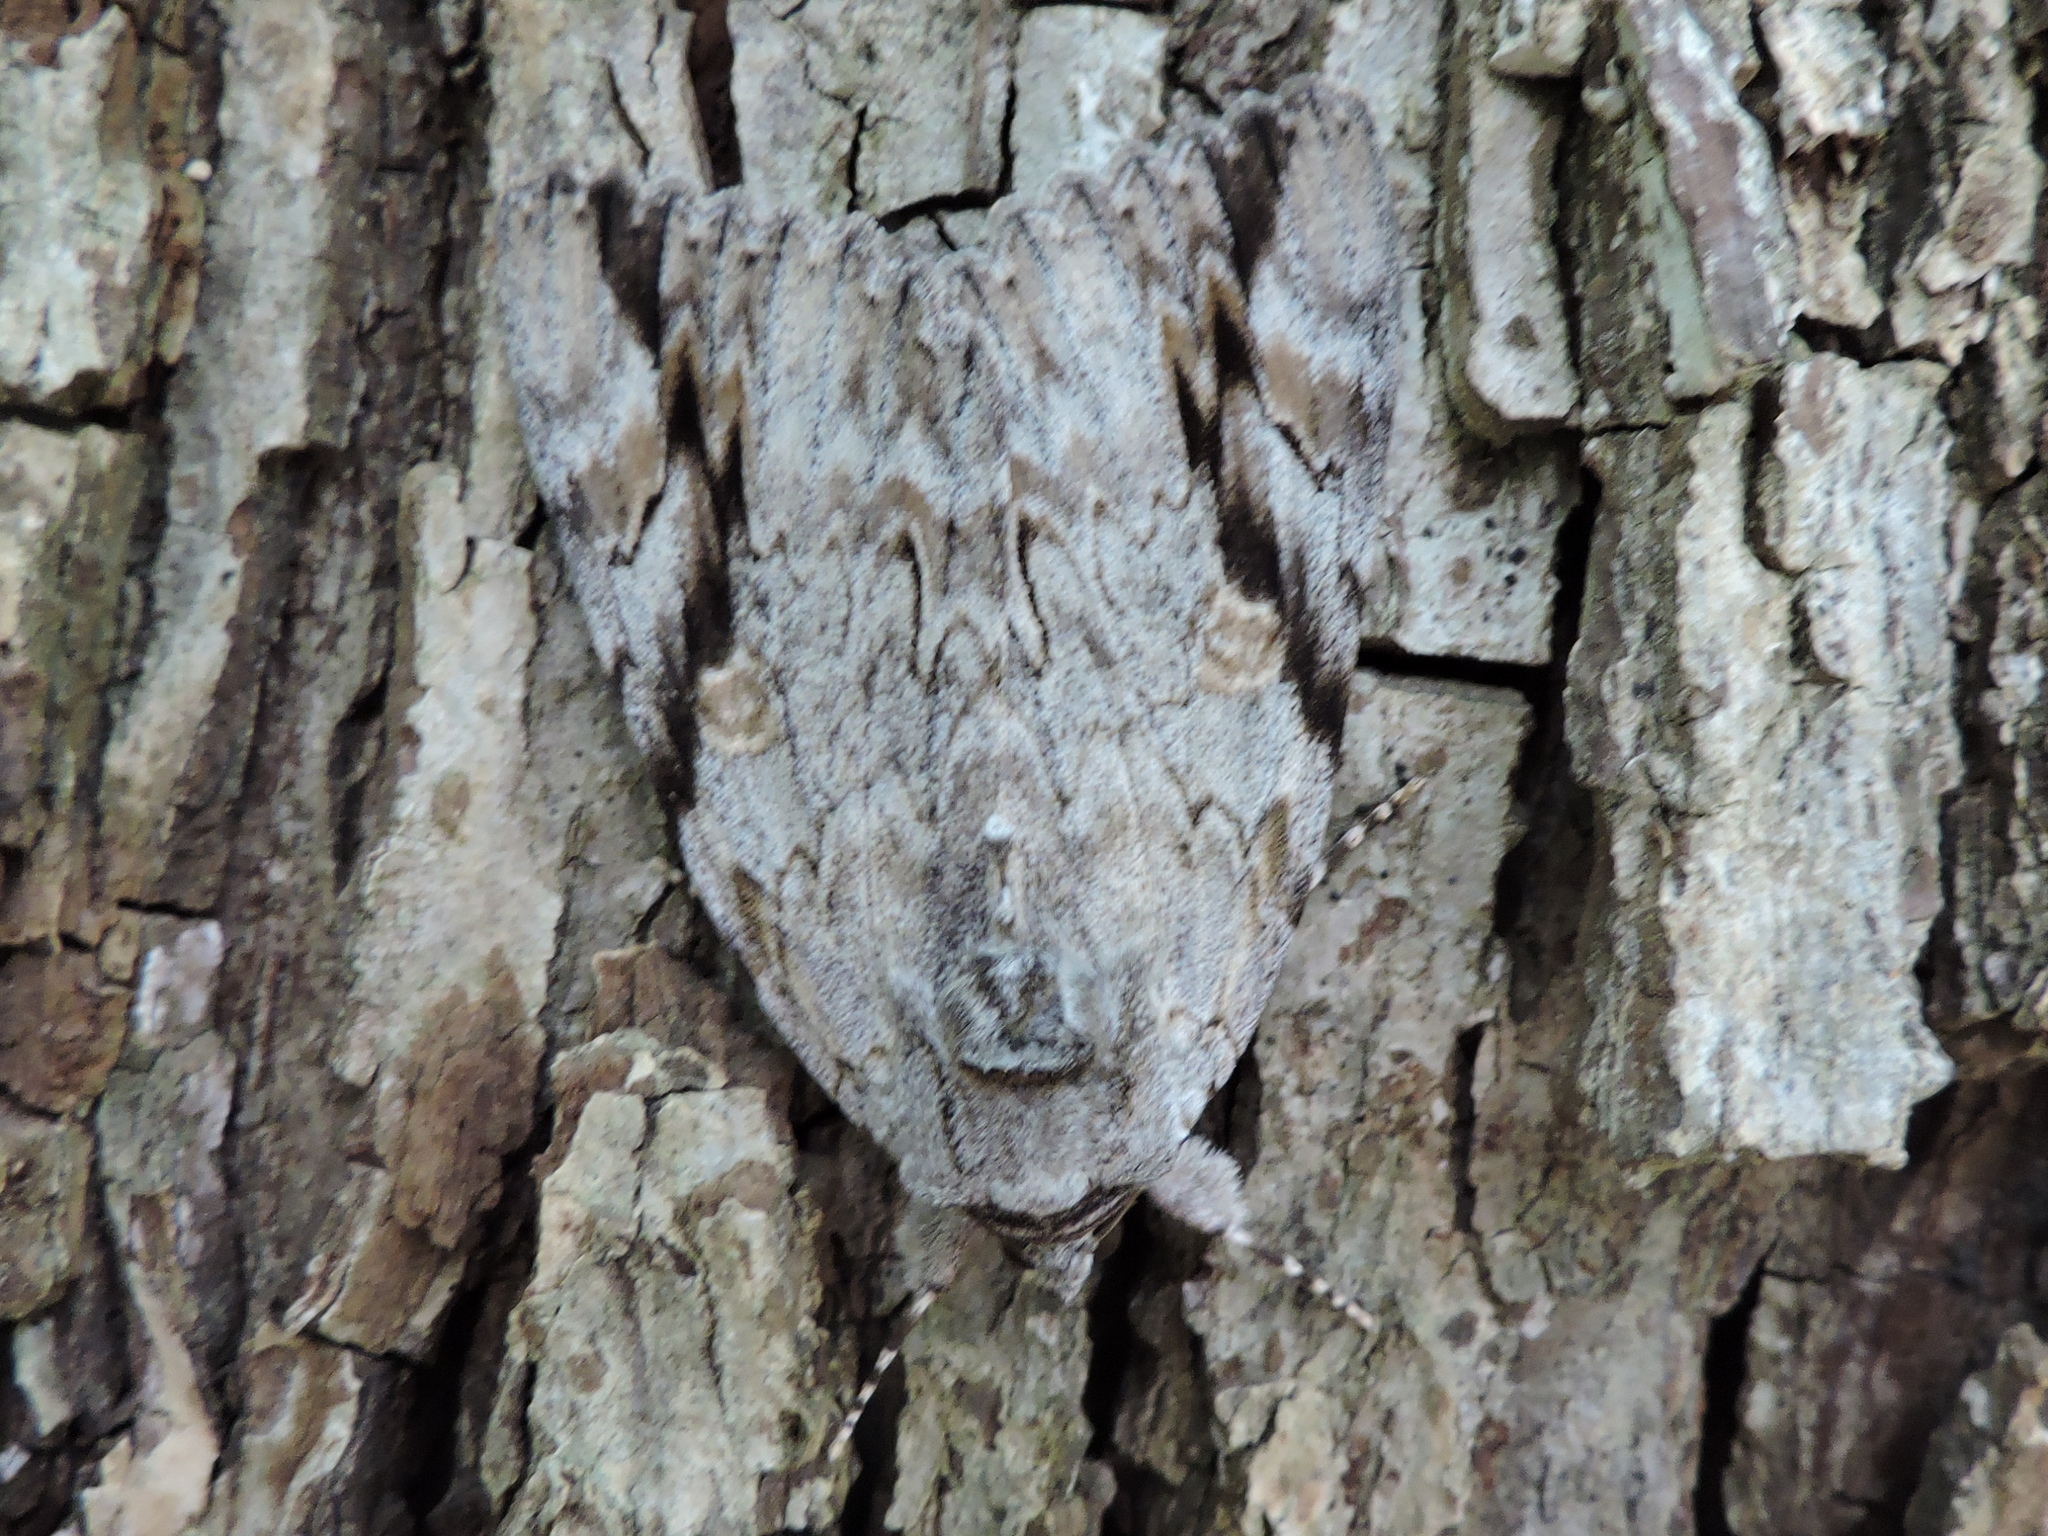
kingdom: Animalia
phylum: Arthropoda
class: Insecta
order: Lepidoptera
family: Erebidae
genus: Catocala
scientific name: Catocala maestosa
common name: Sad underwing
